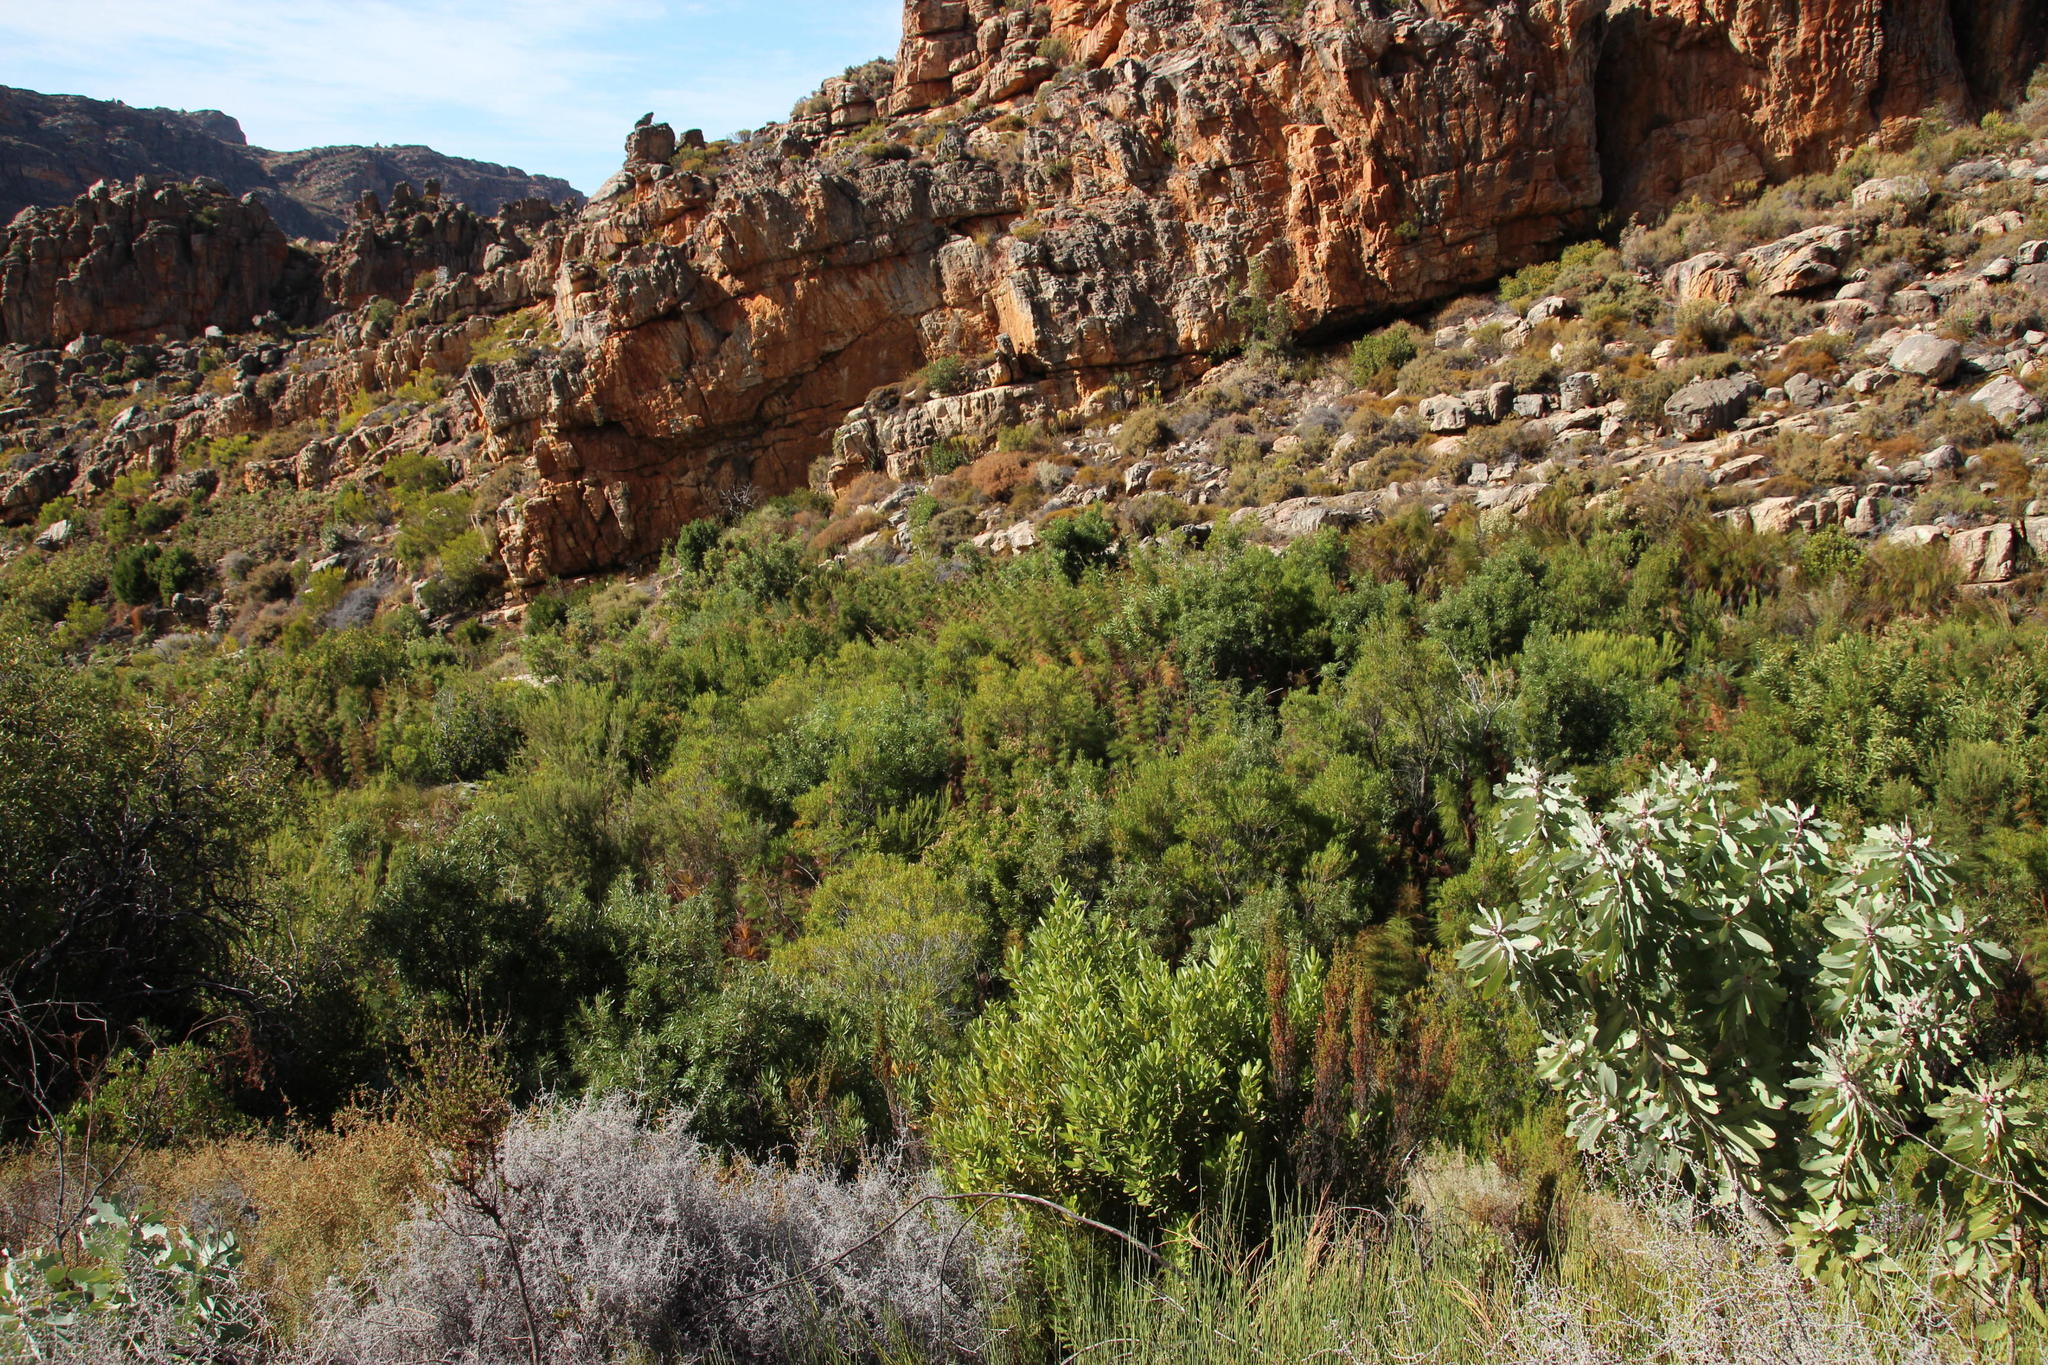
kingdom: Plantae
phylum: Tracheophyta
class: Liliopsida
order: Poales
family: Restionaceae
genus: Elegia
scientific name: Elegia capensis
